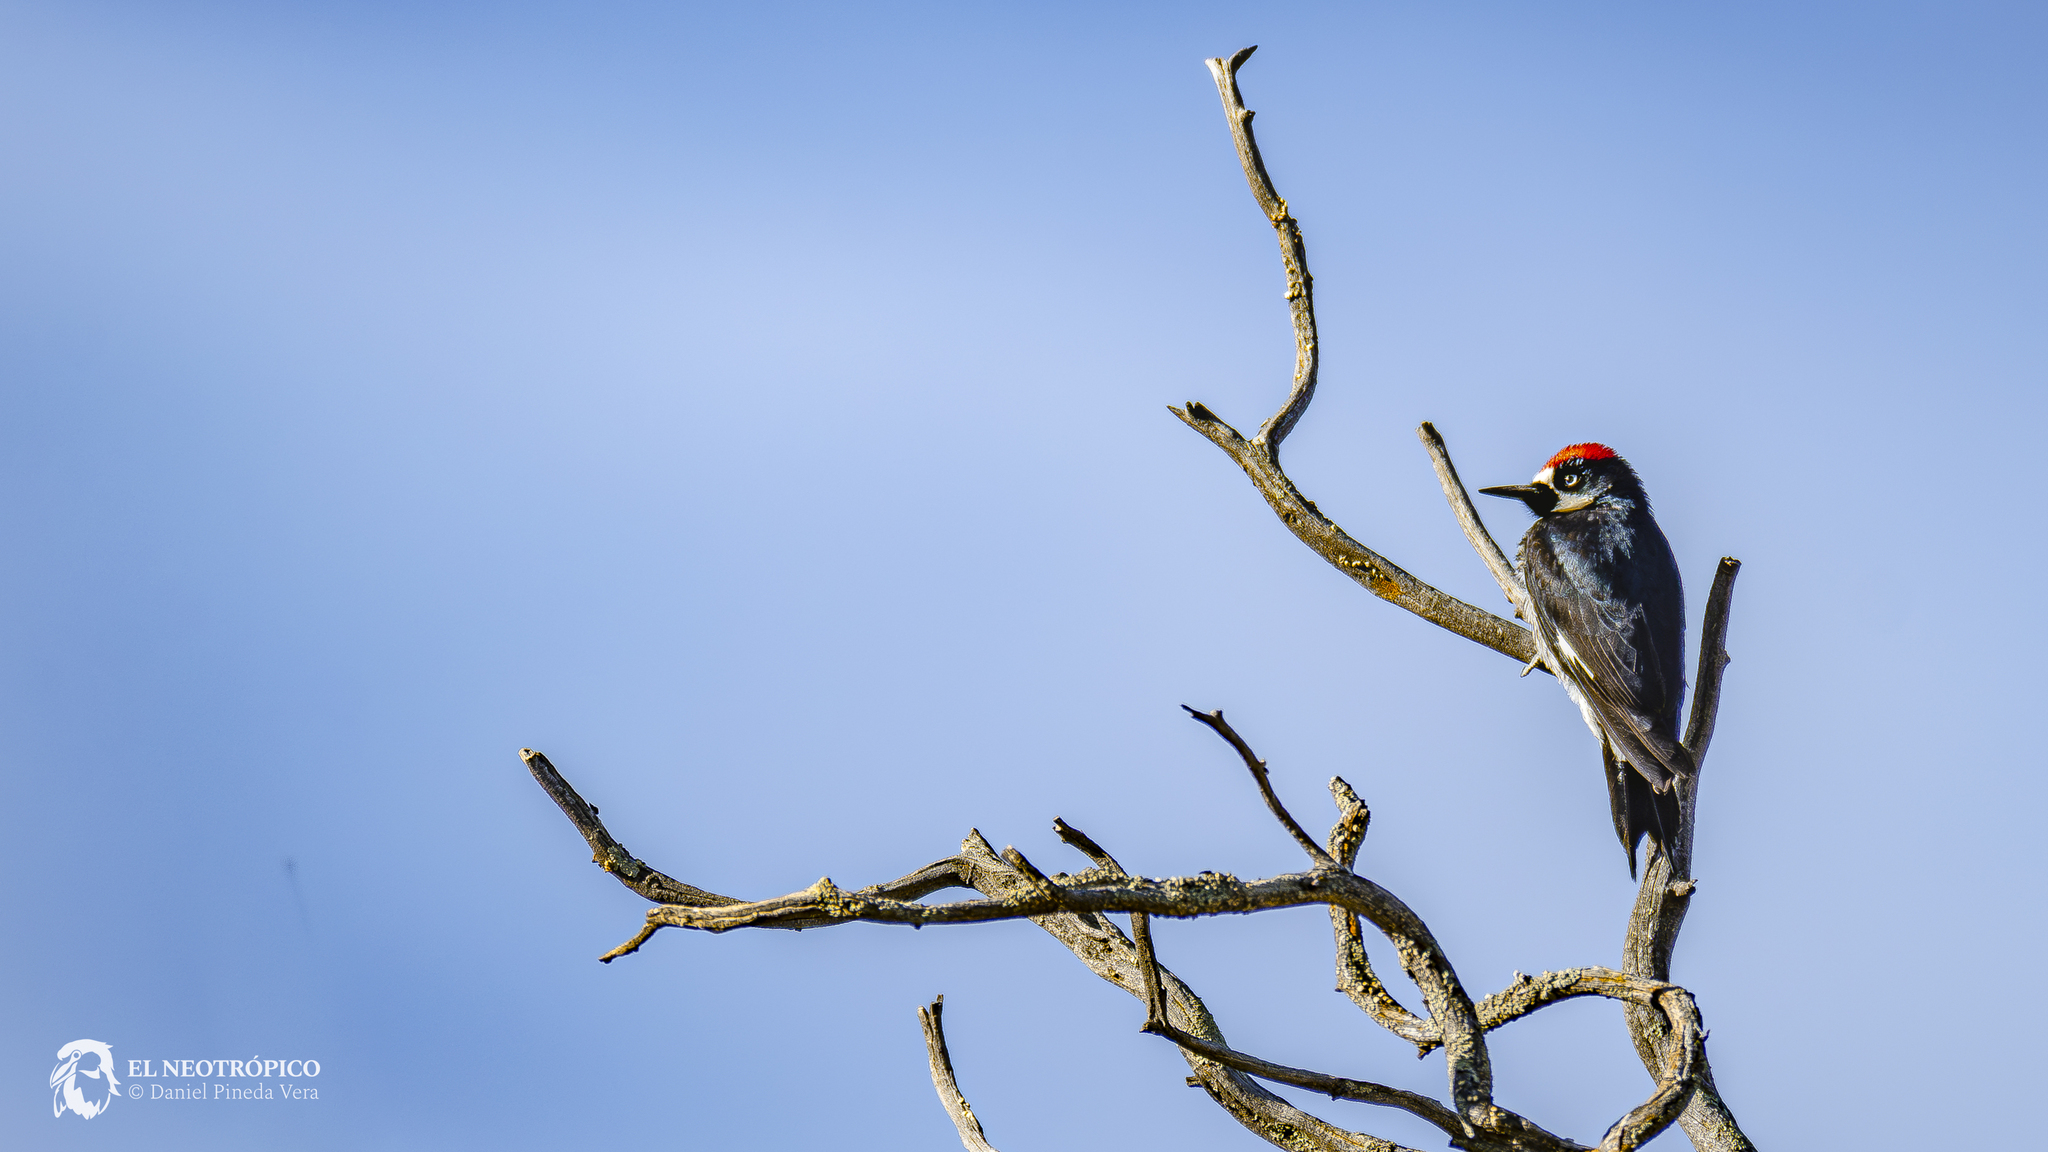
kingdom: Animalia
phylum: Chordata
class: Aves
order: Piciformes
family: Picidae
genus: Melanerpes
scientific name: Melanerpes formicivorus
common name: Acorn woodpecker
